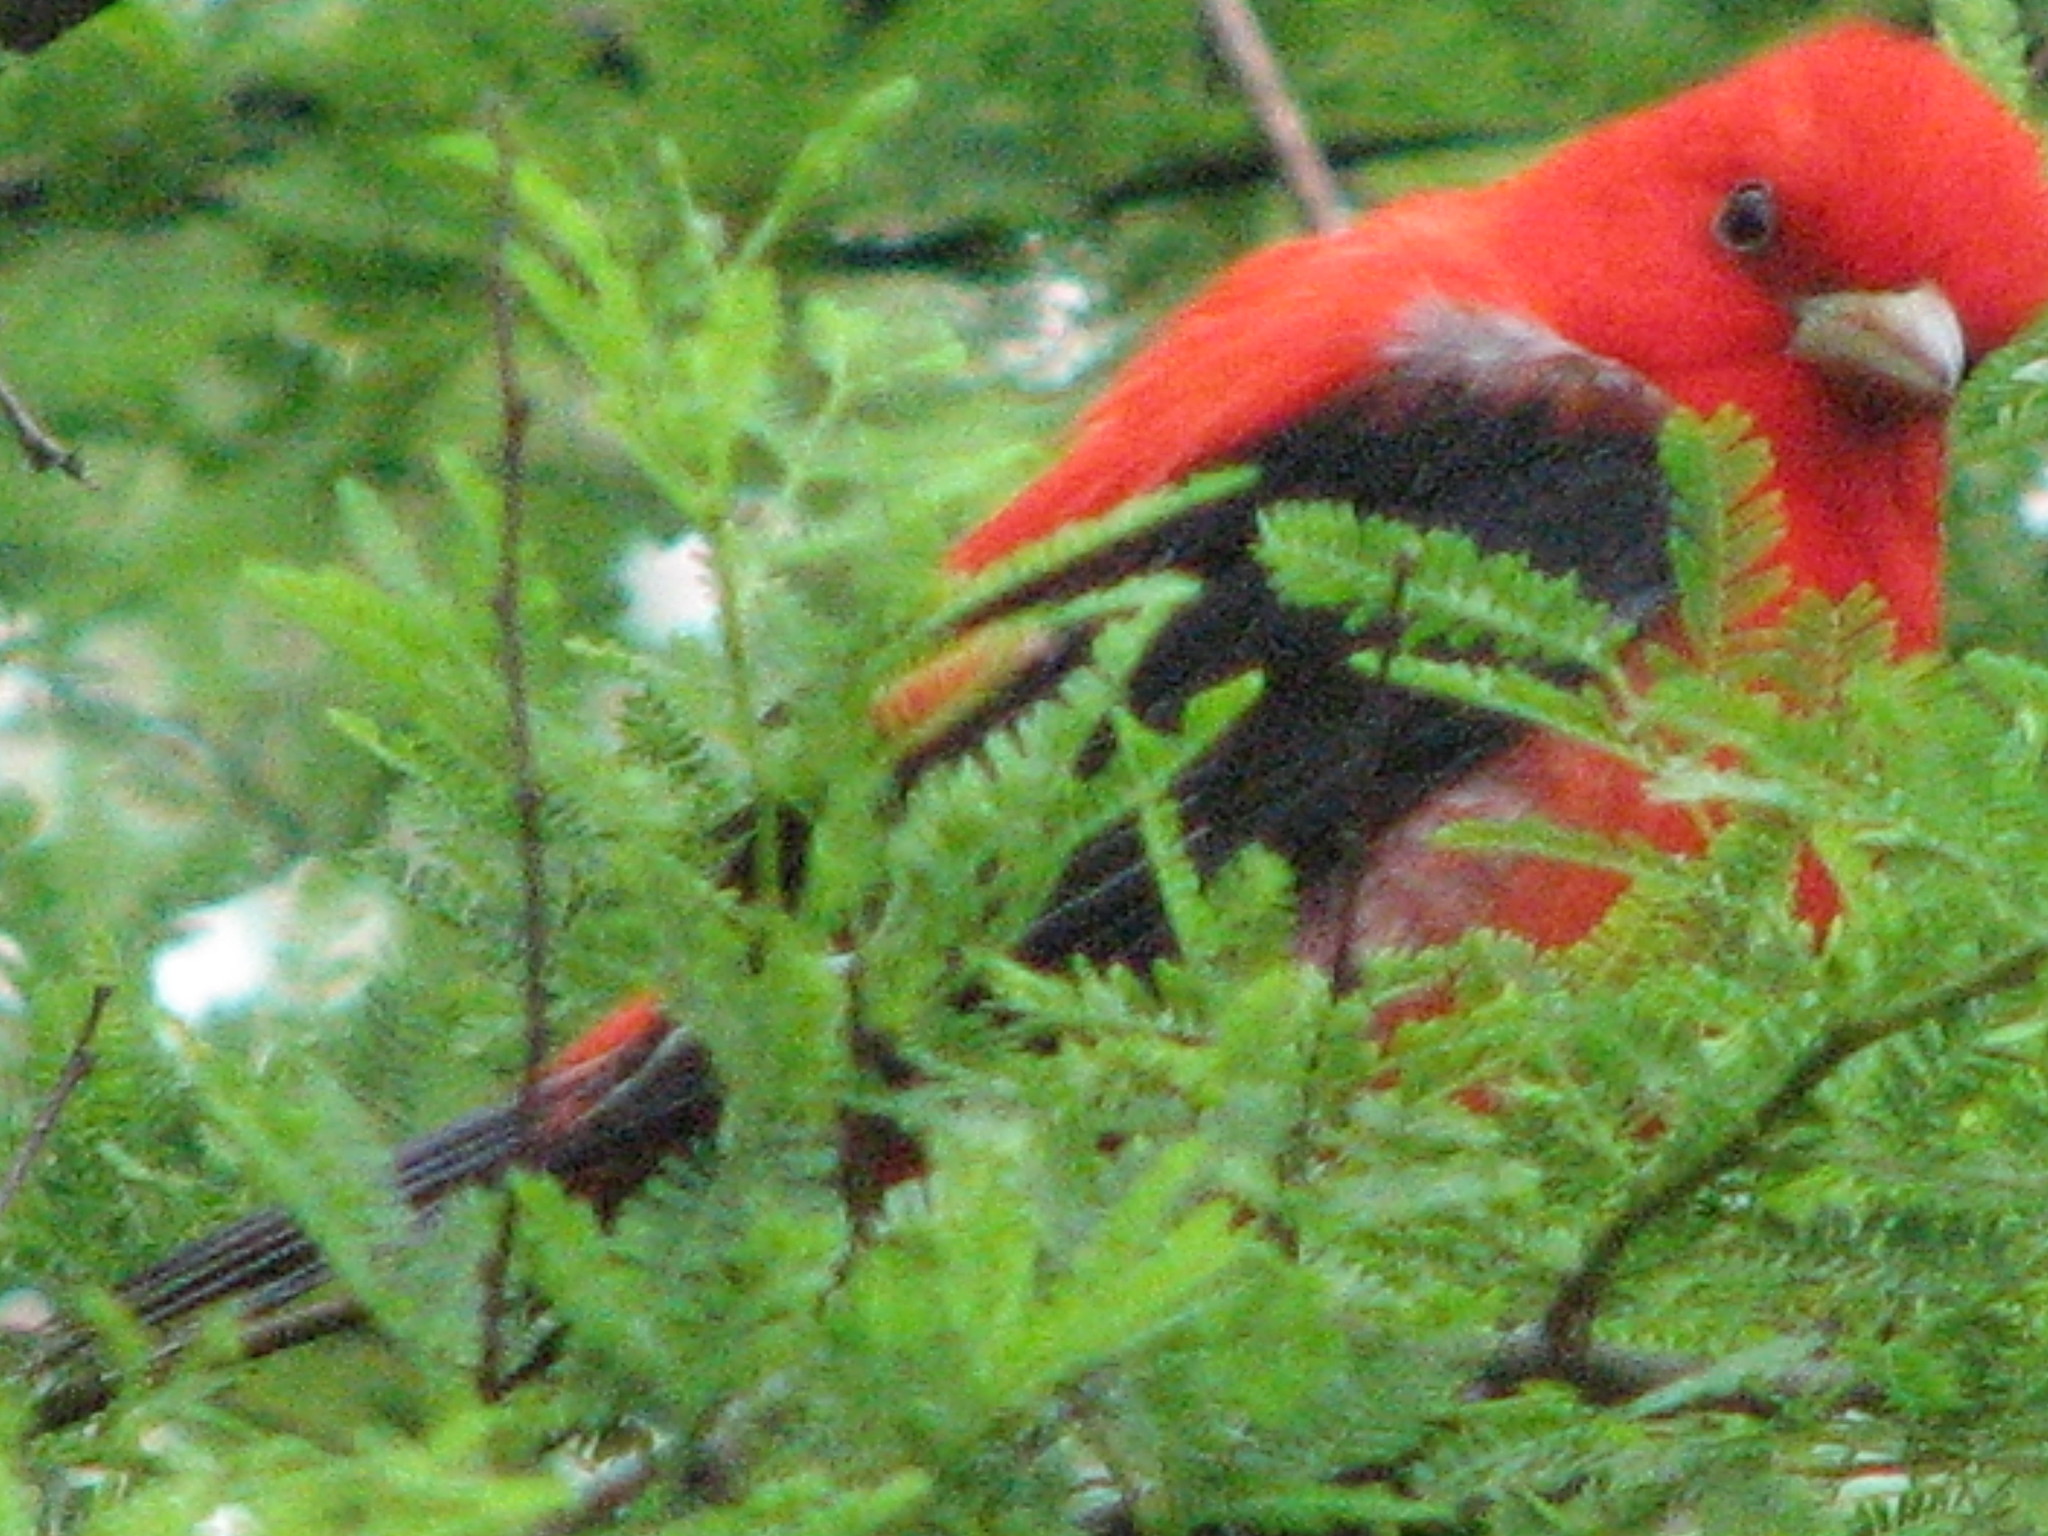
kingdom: Animalia
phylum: Chordata
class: Aves
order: Passeriformes
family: Cardinalidae
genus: Piranga
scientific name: Piranga olivacea
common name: Scarlet tanager
